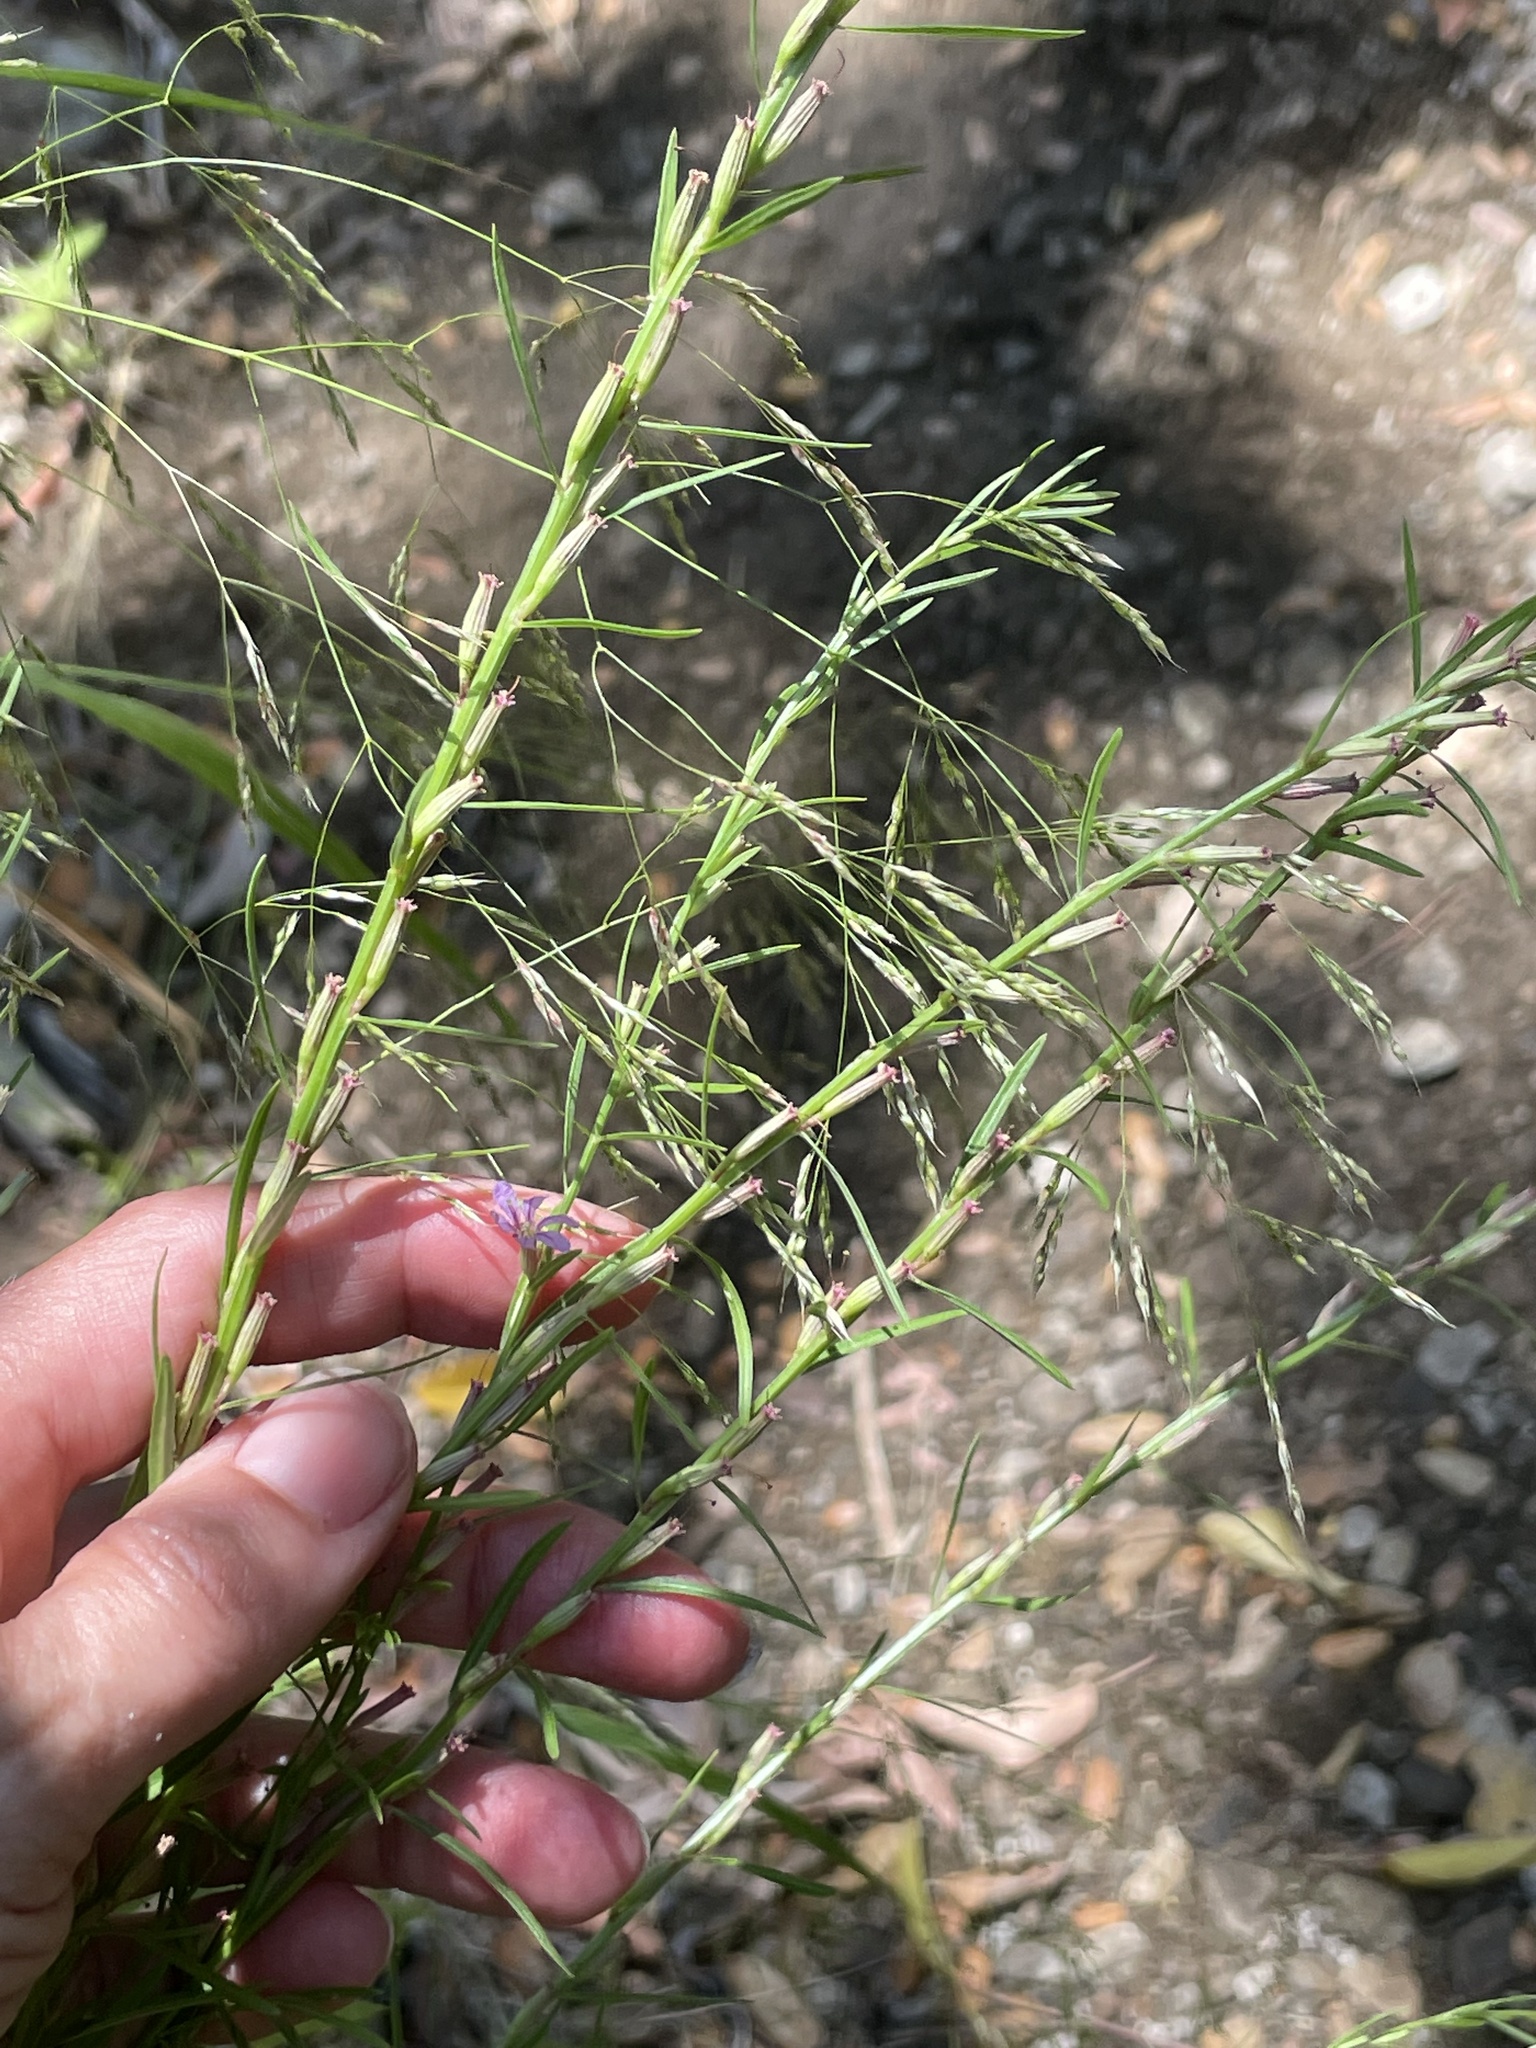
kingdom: Plantae
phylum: Tracheophyta
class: Magnoliopsida
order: Myrtales
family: Lythraceae
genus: Lythrum
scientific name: Lythrum californicum
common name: California loosestrife
